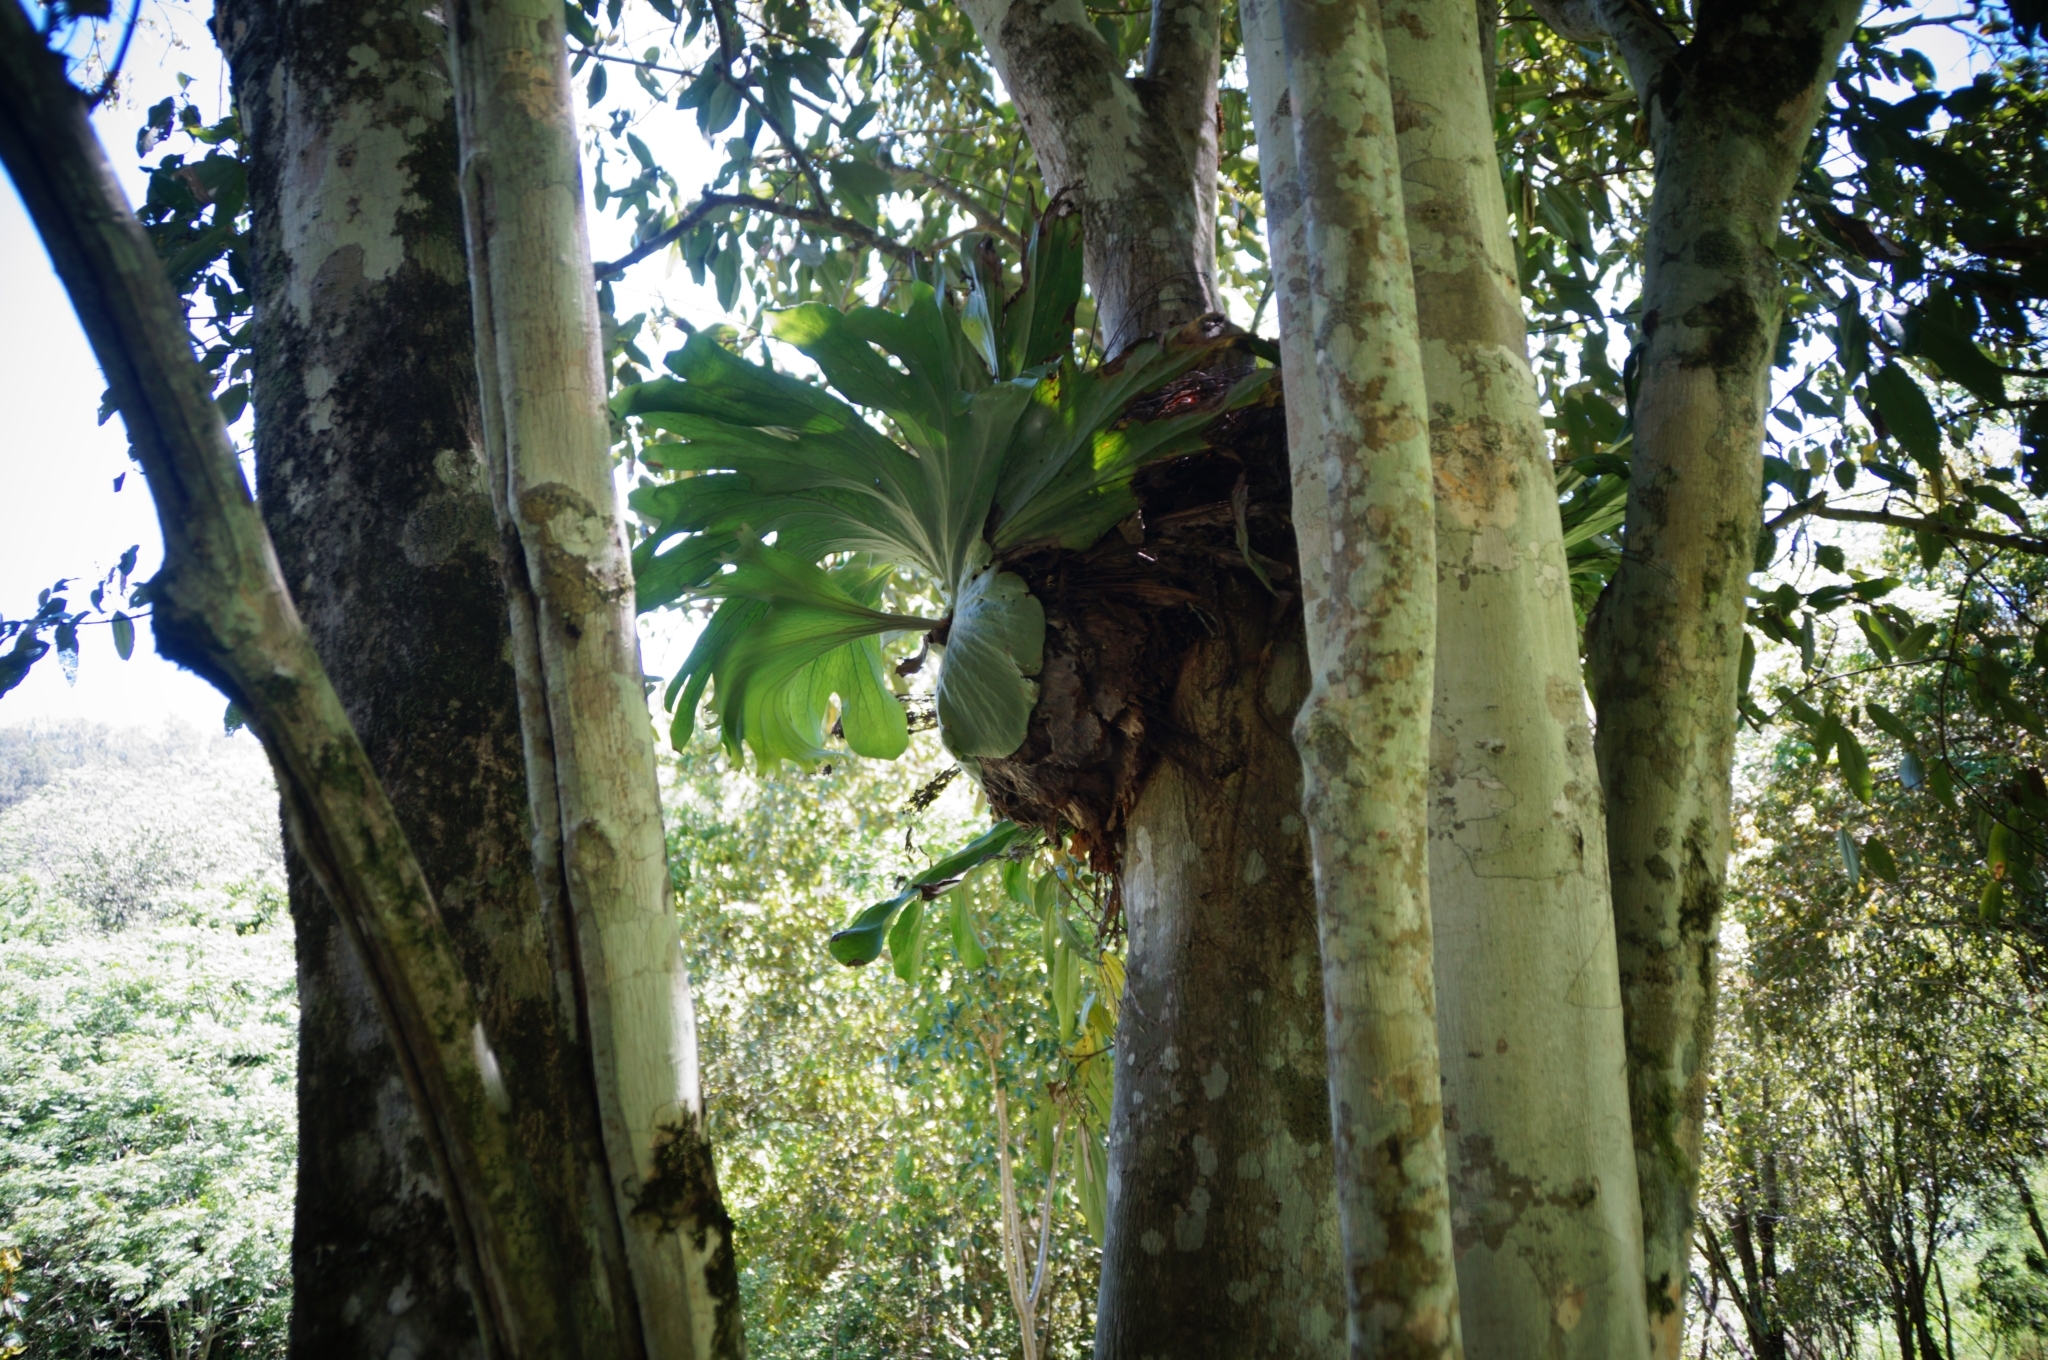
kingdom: Plantae
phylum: Tracheophyta
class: Polypodiopsida
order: Polypodiales
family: Polypodiaceae
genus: Platycerium
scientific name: Platycerium superbum
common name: Staghorn fern
